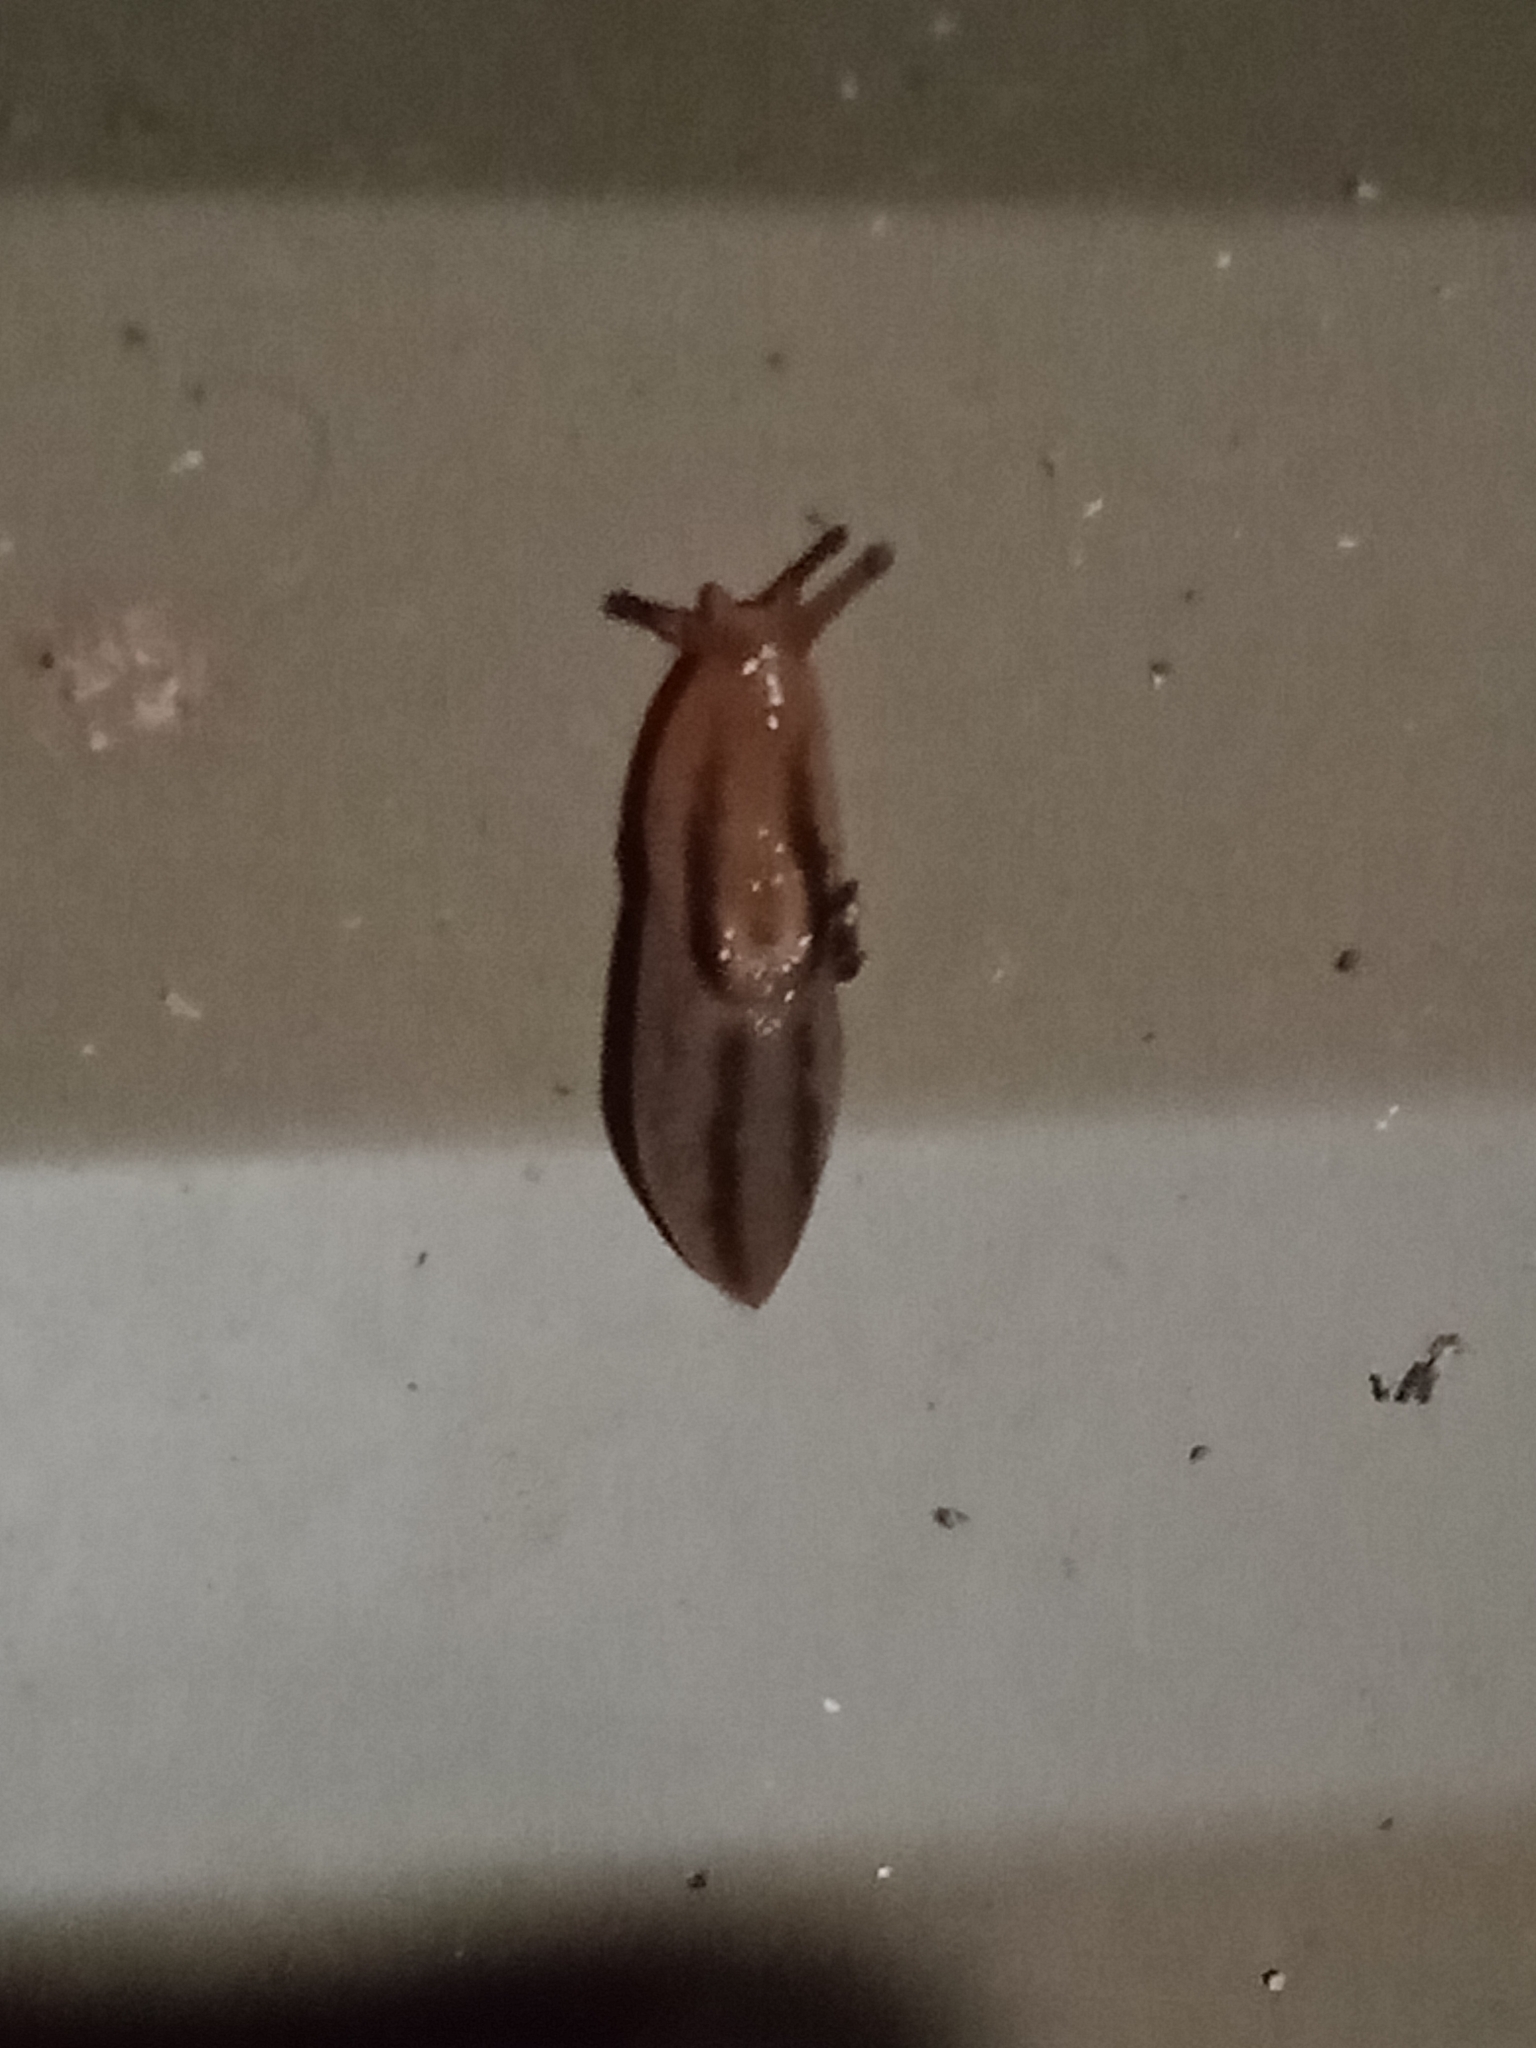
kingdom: Animalia
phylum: Mollusca
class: Gastropoda
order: Stylommatophora
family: Limacidae
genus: Ambigolimax
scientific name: Ambigolimax
